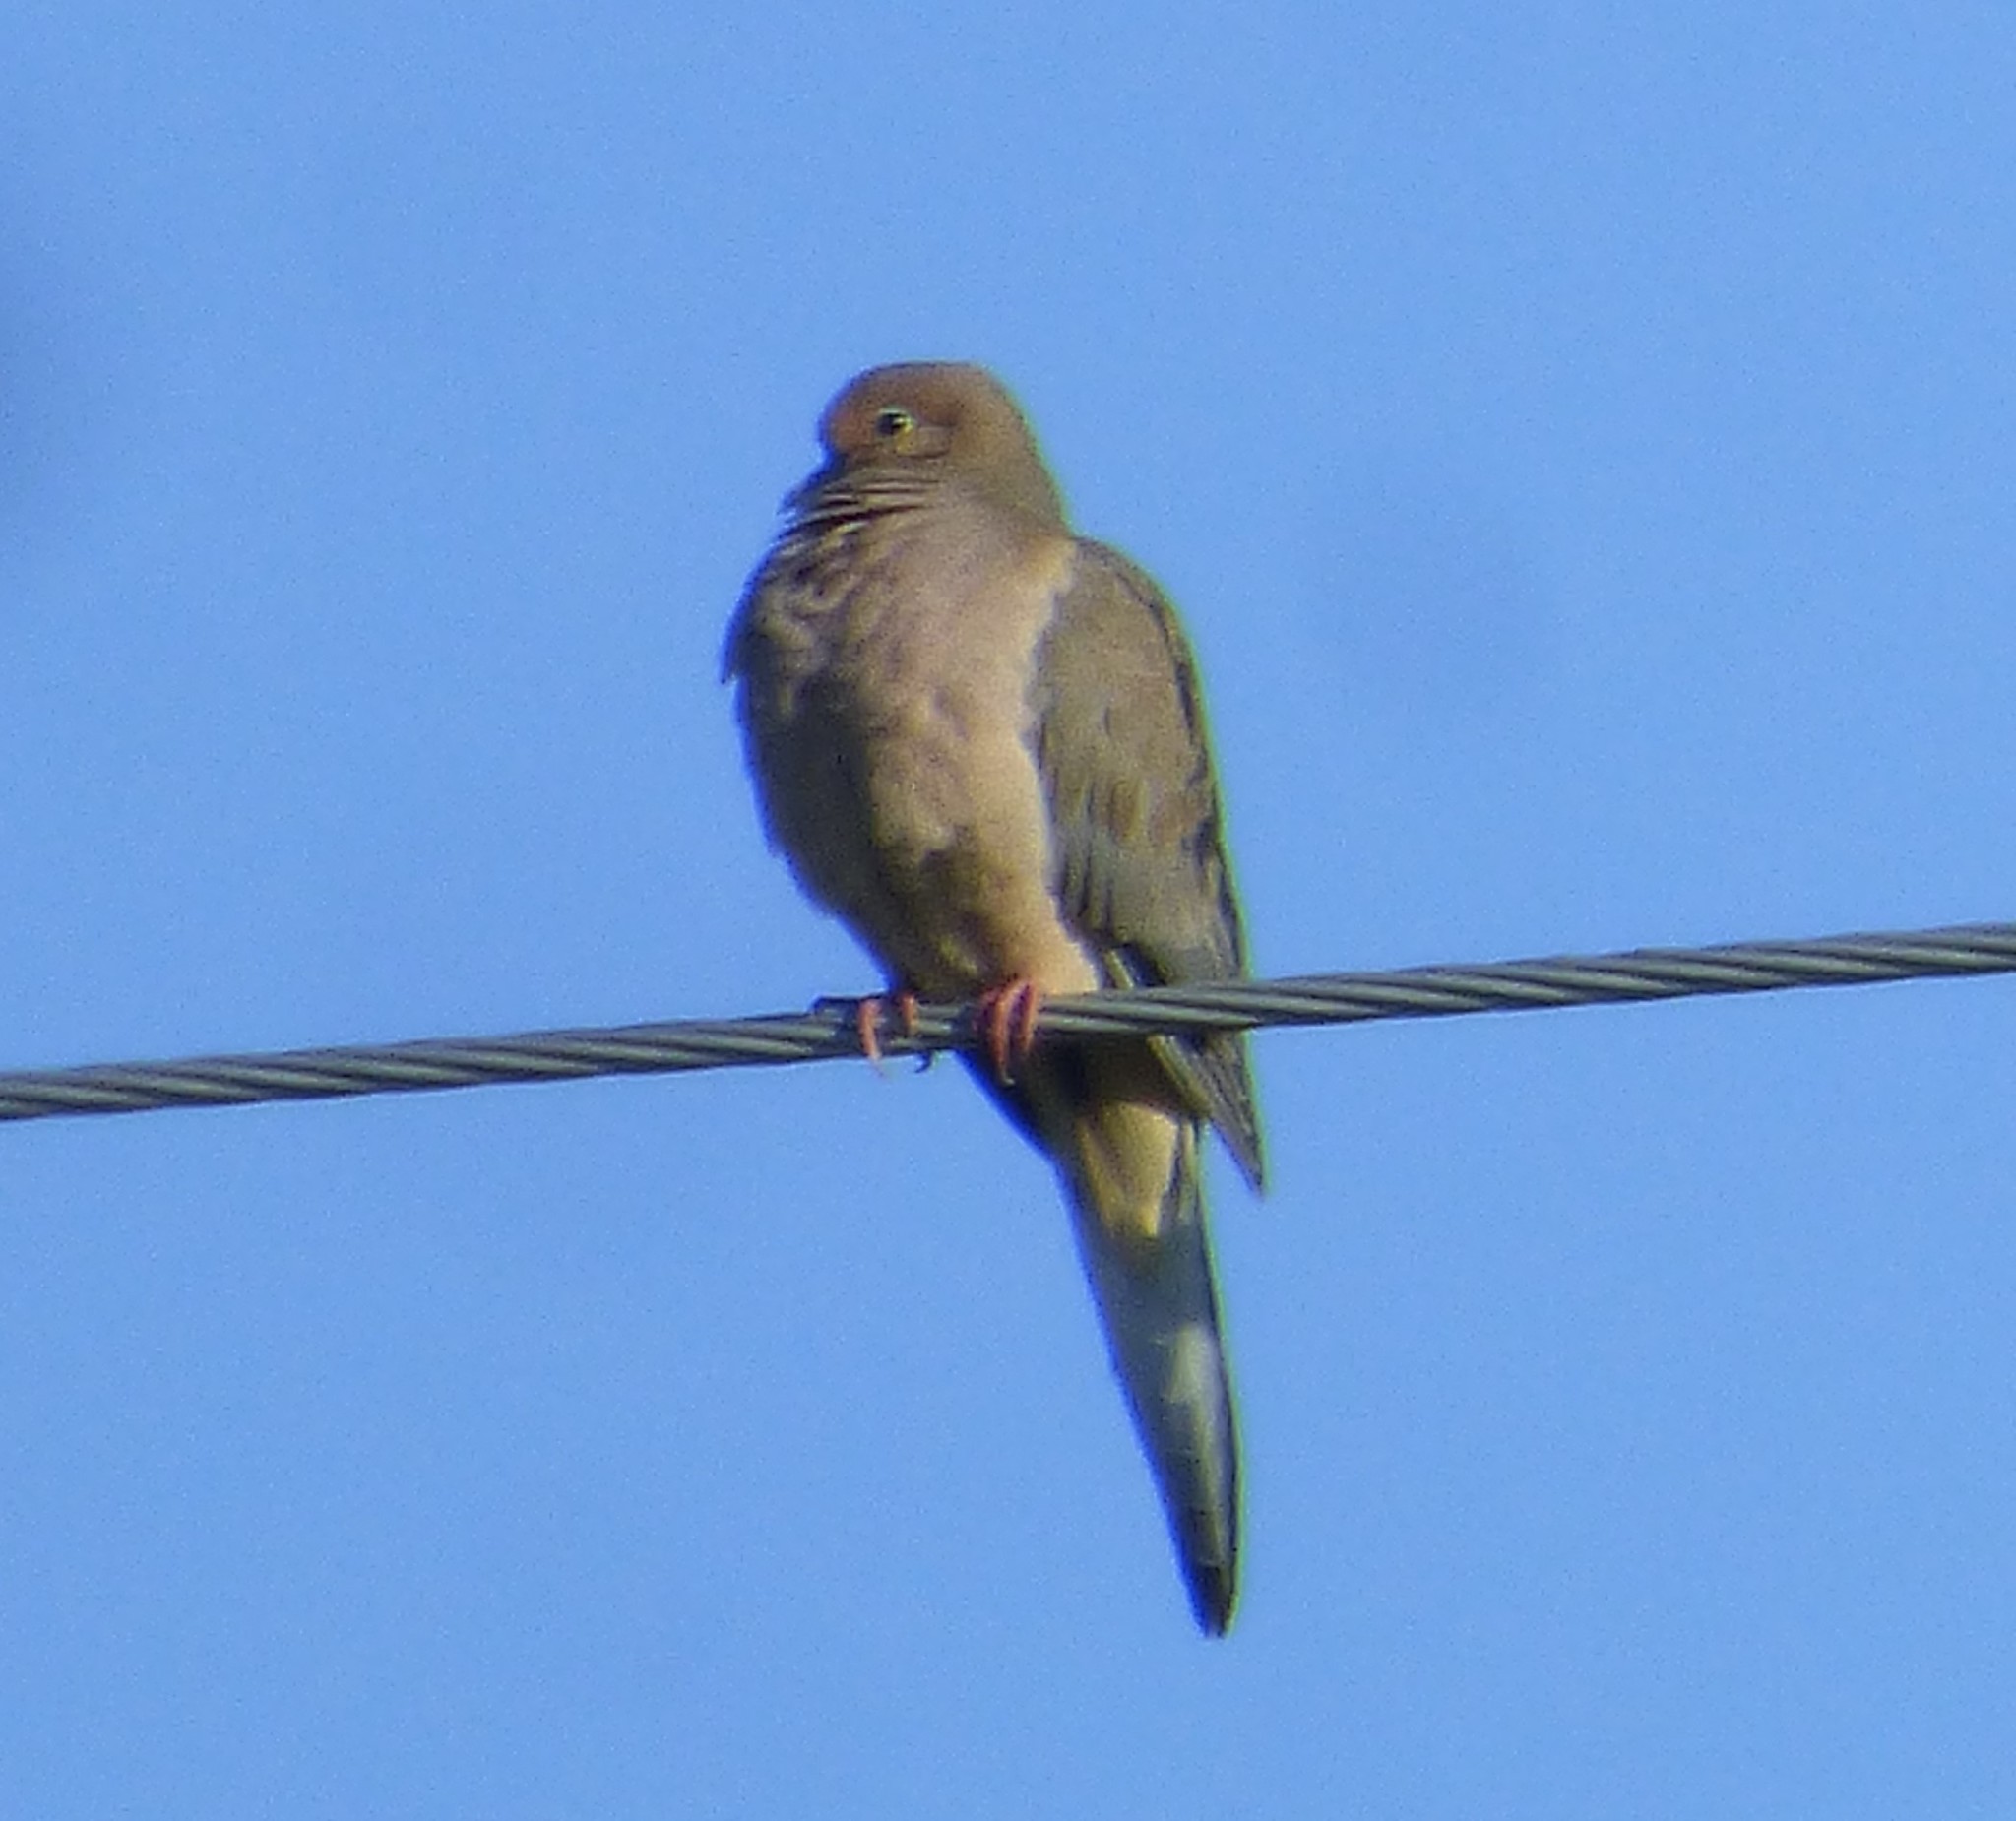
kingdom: Animalia
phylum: Chordata
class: Aves
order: Columbiformes
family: Columbidae
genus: Zenaida
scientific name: Zenaida macroura
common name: Mourning dove
